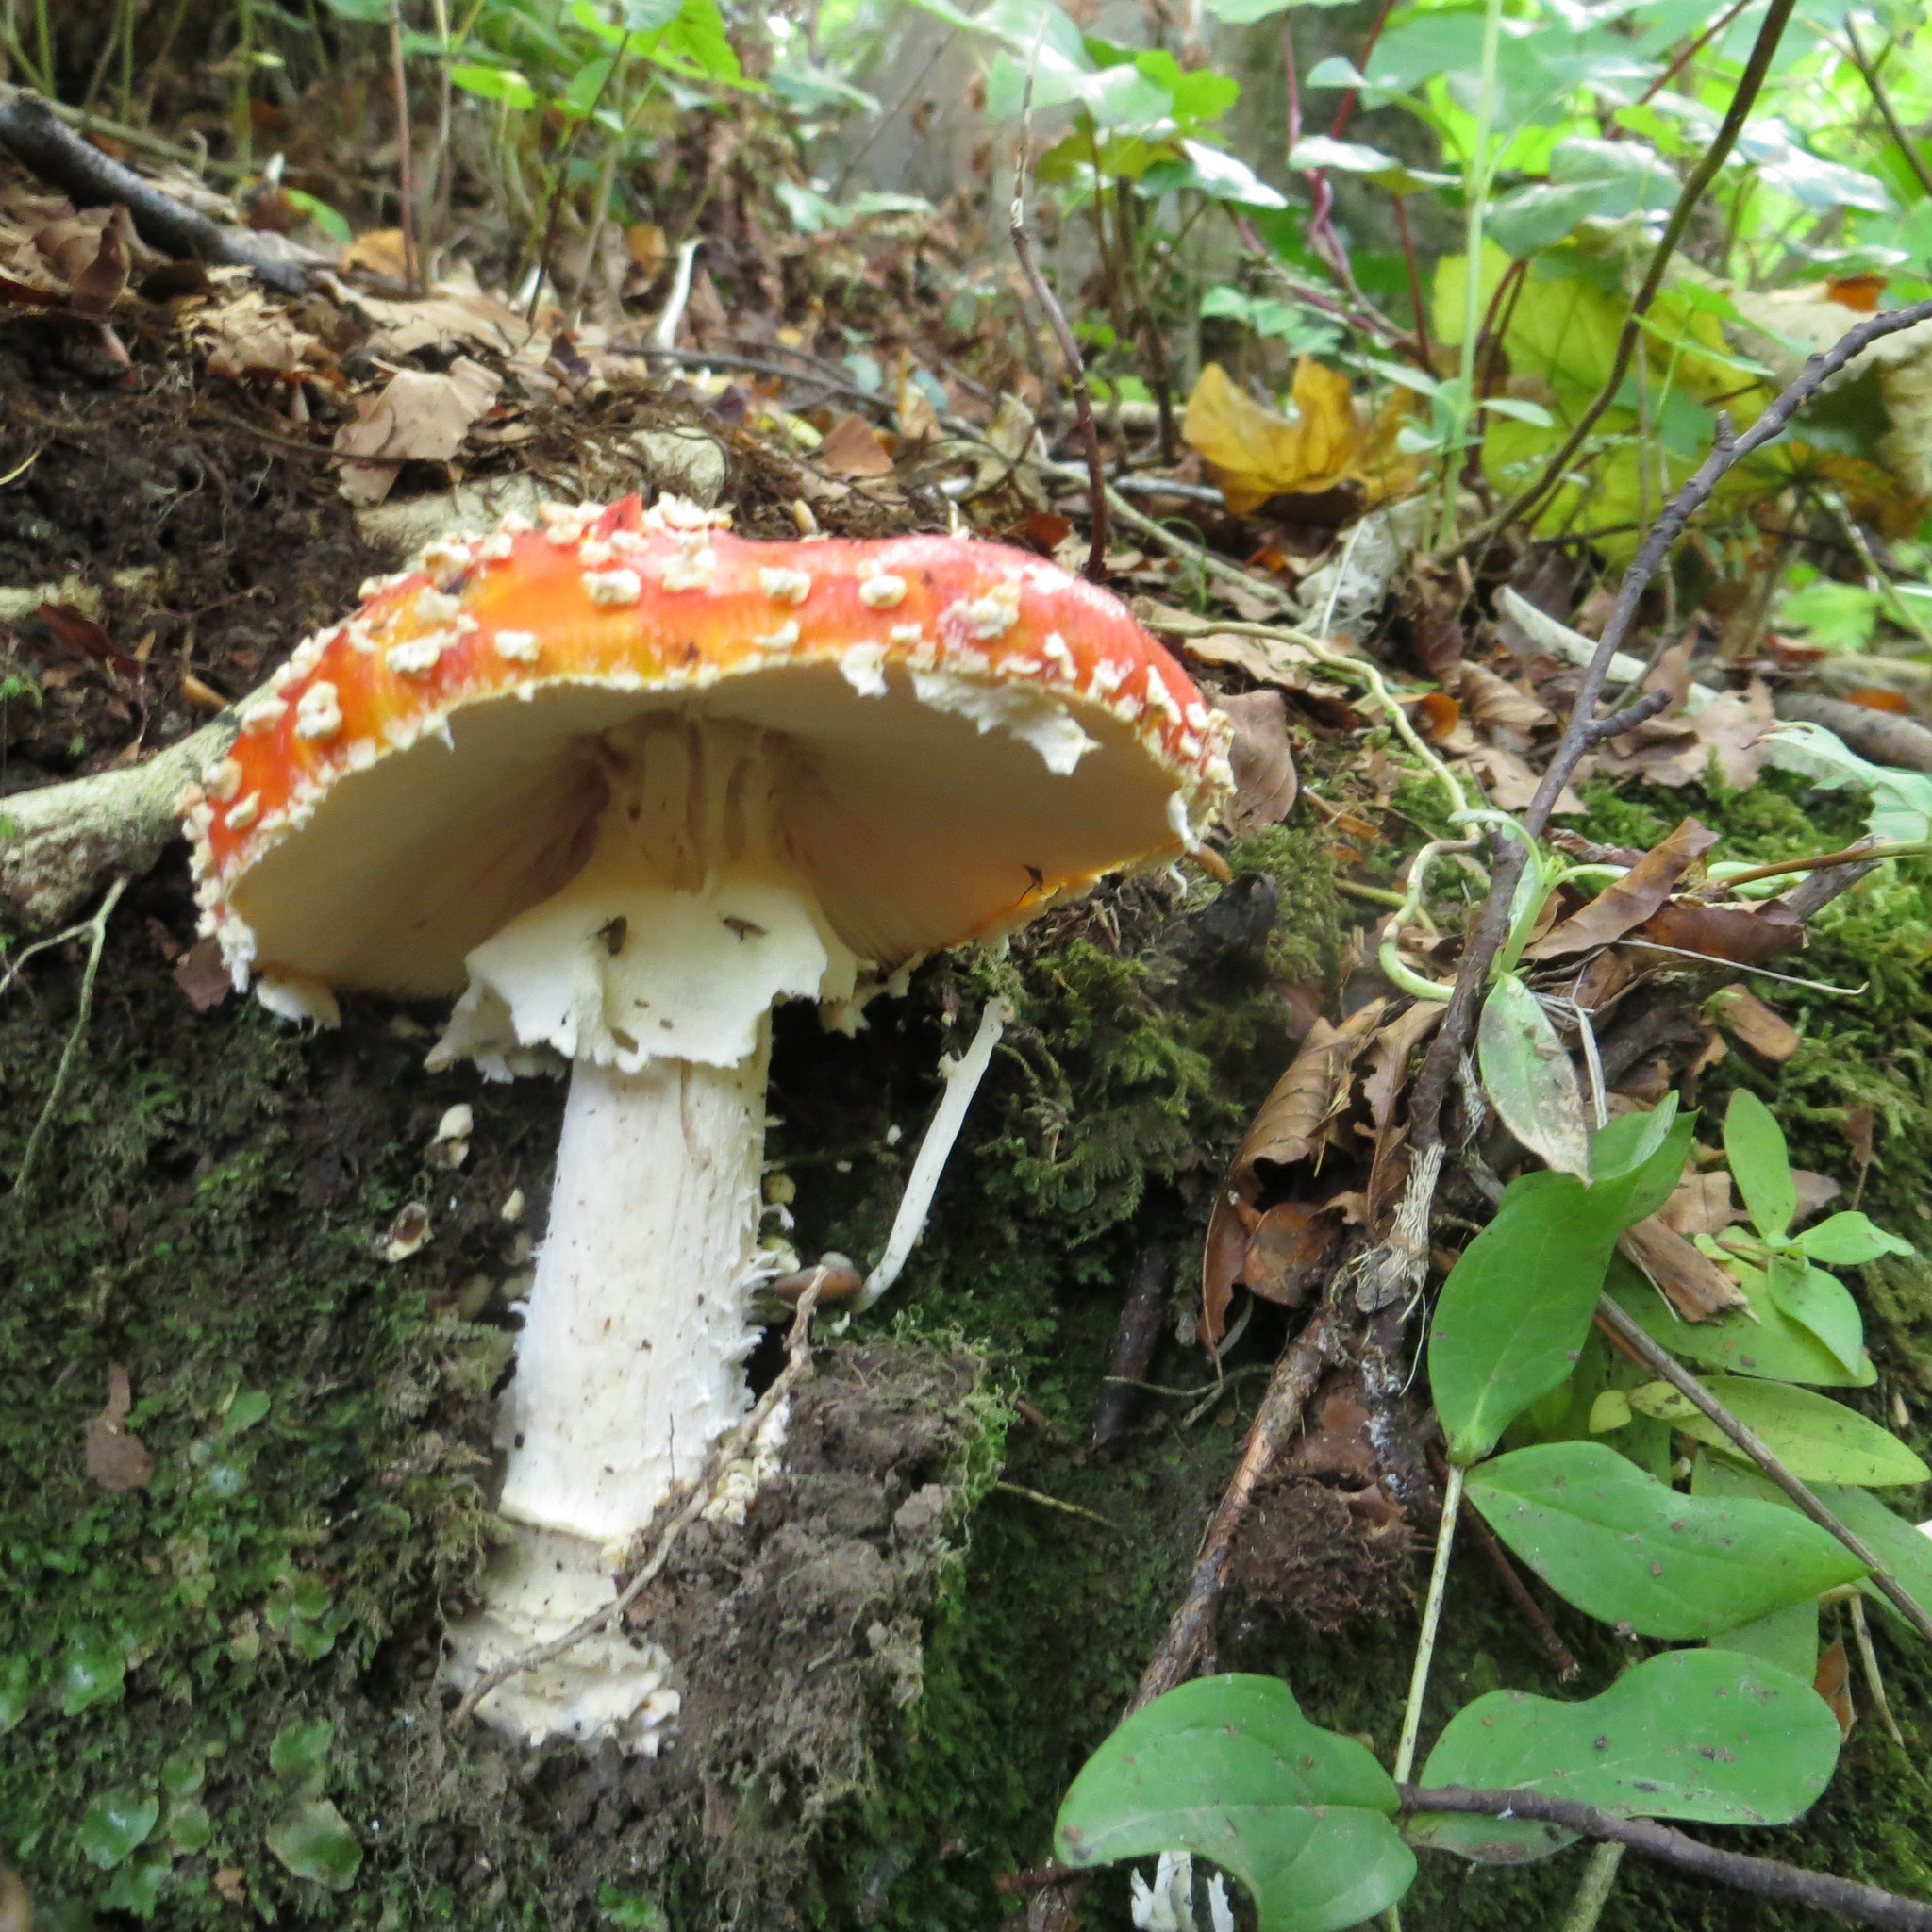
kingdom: Fungi
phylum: Basidiomycota
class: Agaricomycetes
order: Agaricales
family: Amanitaceae
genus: Amanita
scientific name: Amanita muscaria
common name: Fly agaric
